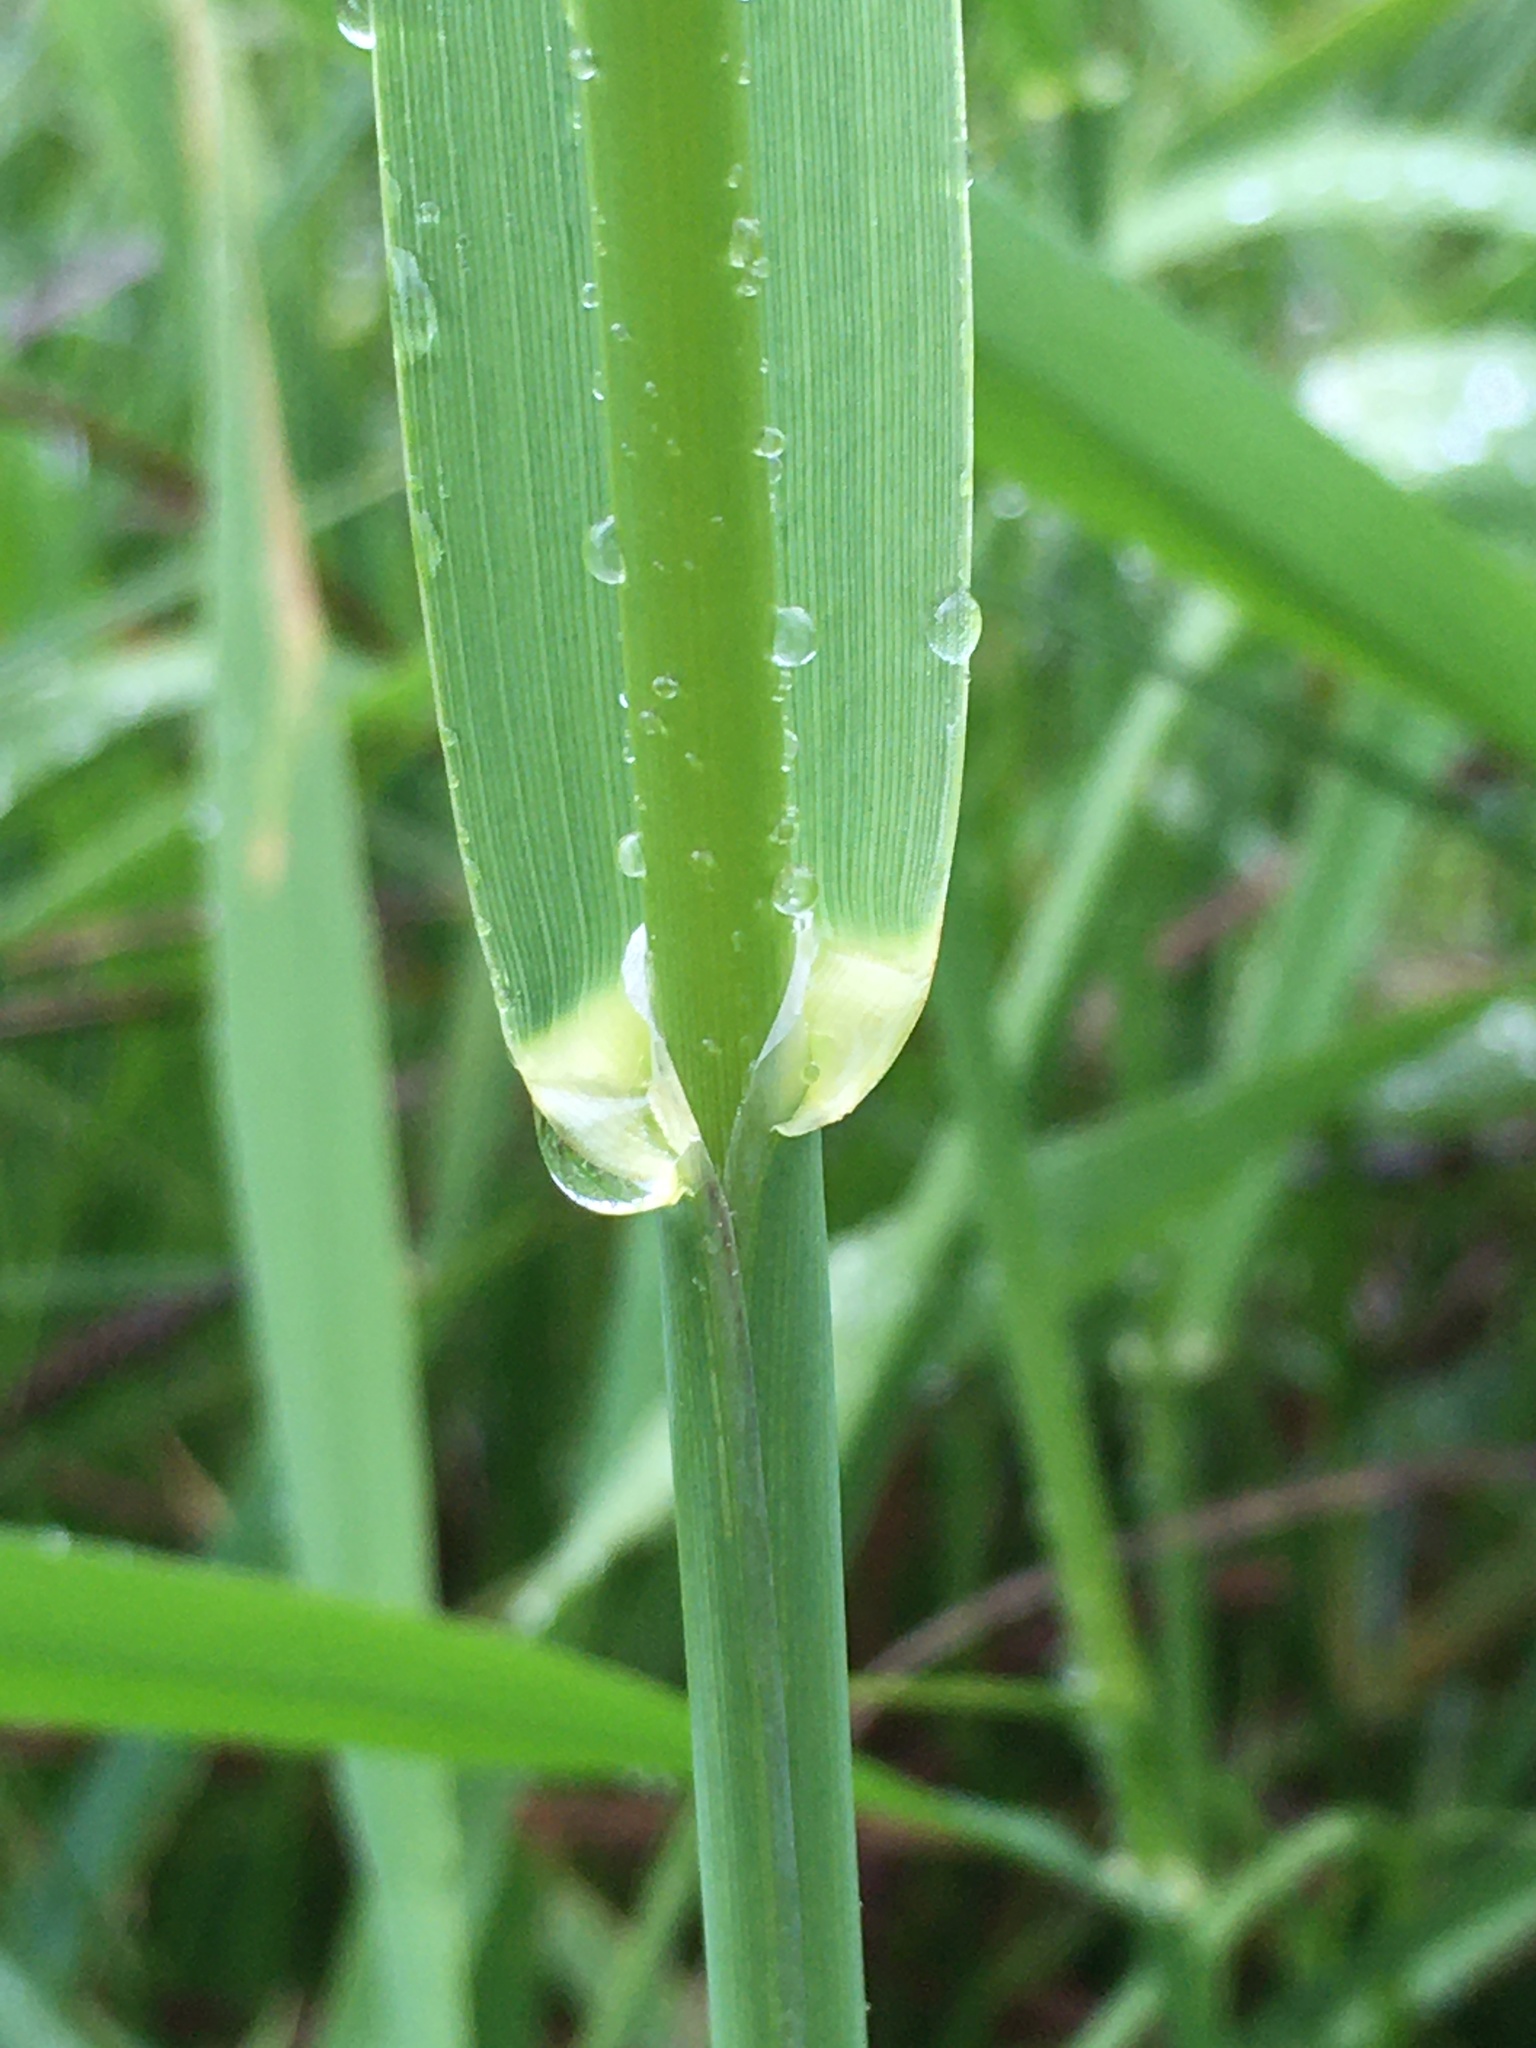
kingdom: Plantae
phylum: Tracheophyta
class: Liliopsida
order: Poales
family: Poaceae
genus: Phalaris
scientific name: Phalaris arundinacea
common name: Reed canary-grass
